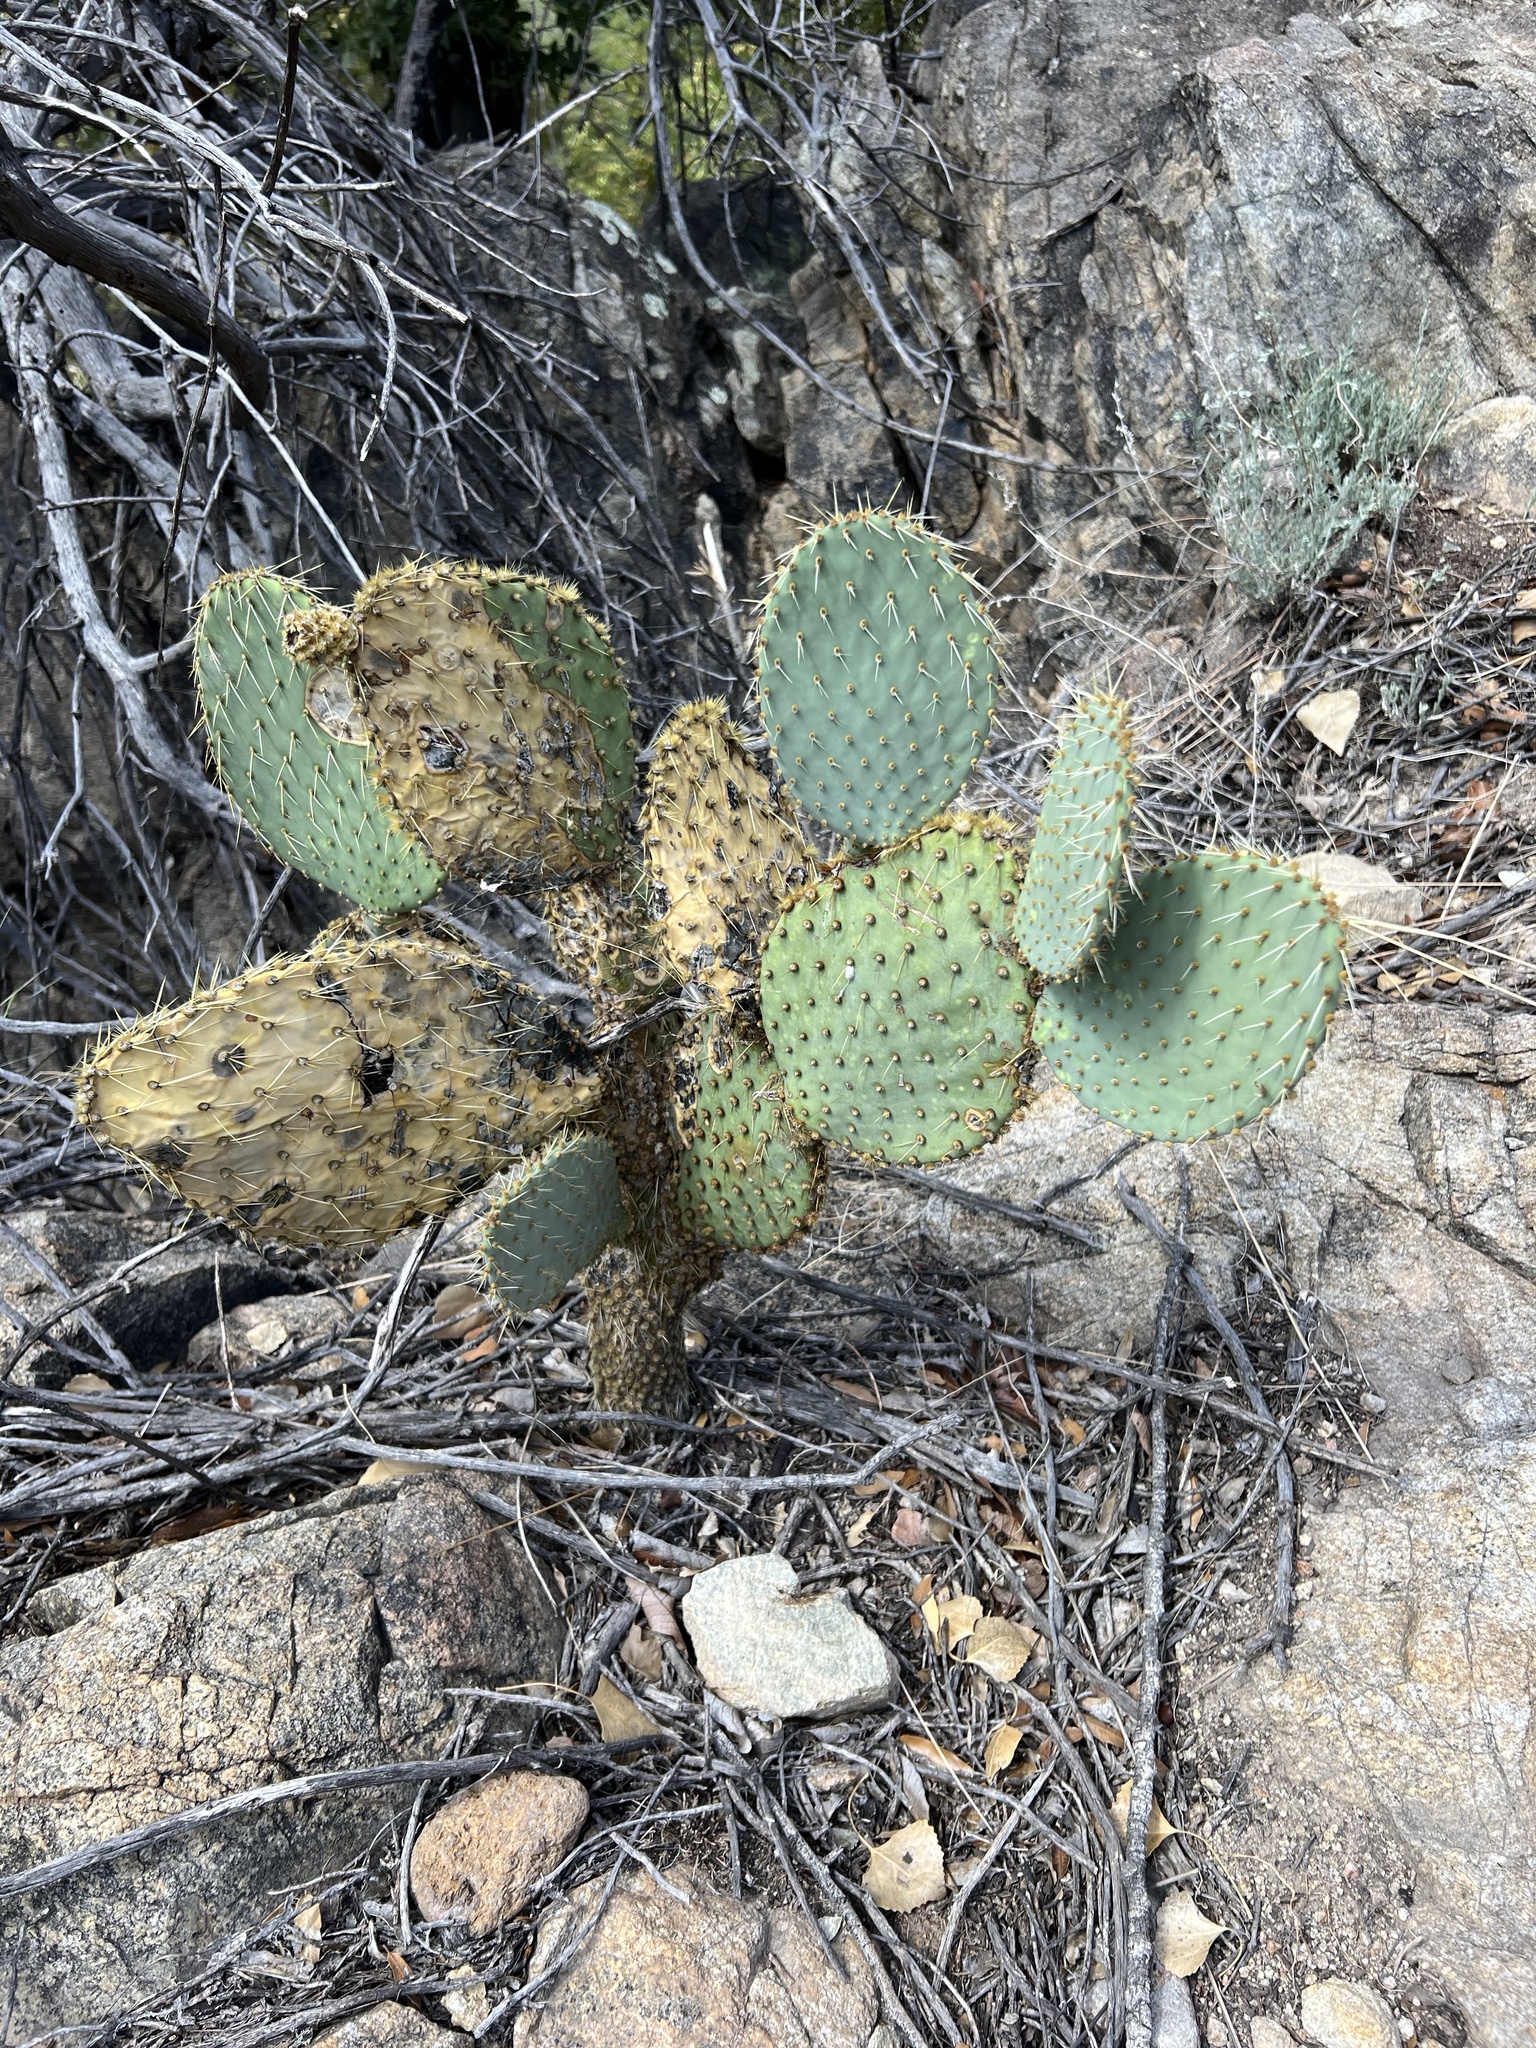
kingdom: Plantae
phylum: Tracheophyta
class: Magnoliopsida
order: Caryophyllales
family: Cactaceae
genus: Opuntia
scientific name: Opuntia chlorotica
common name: Dollar-joint prickly-pear
